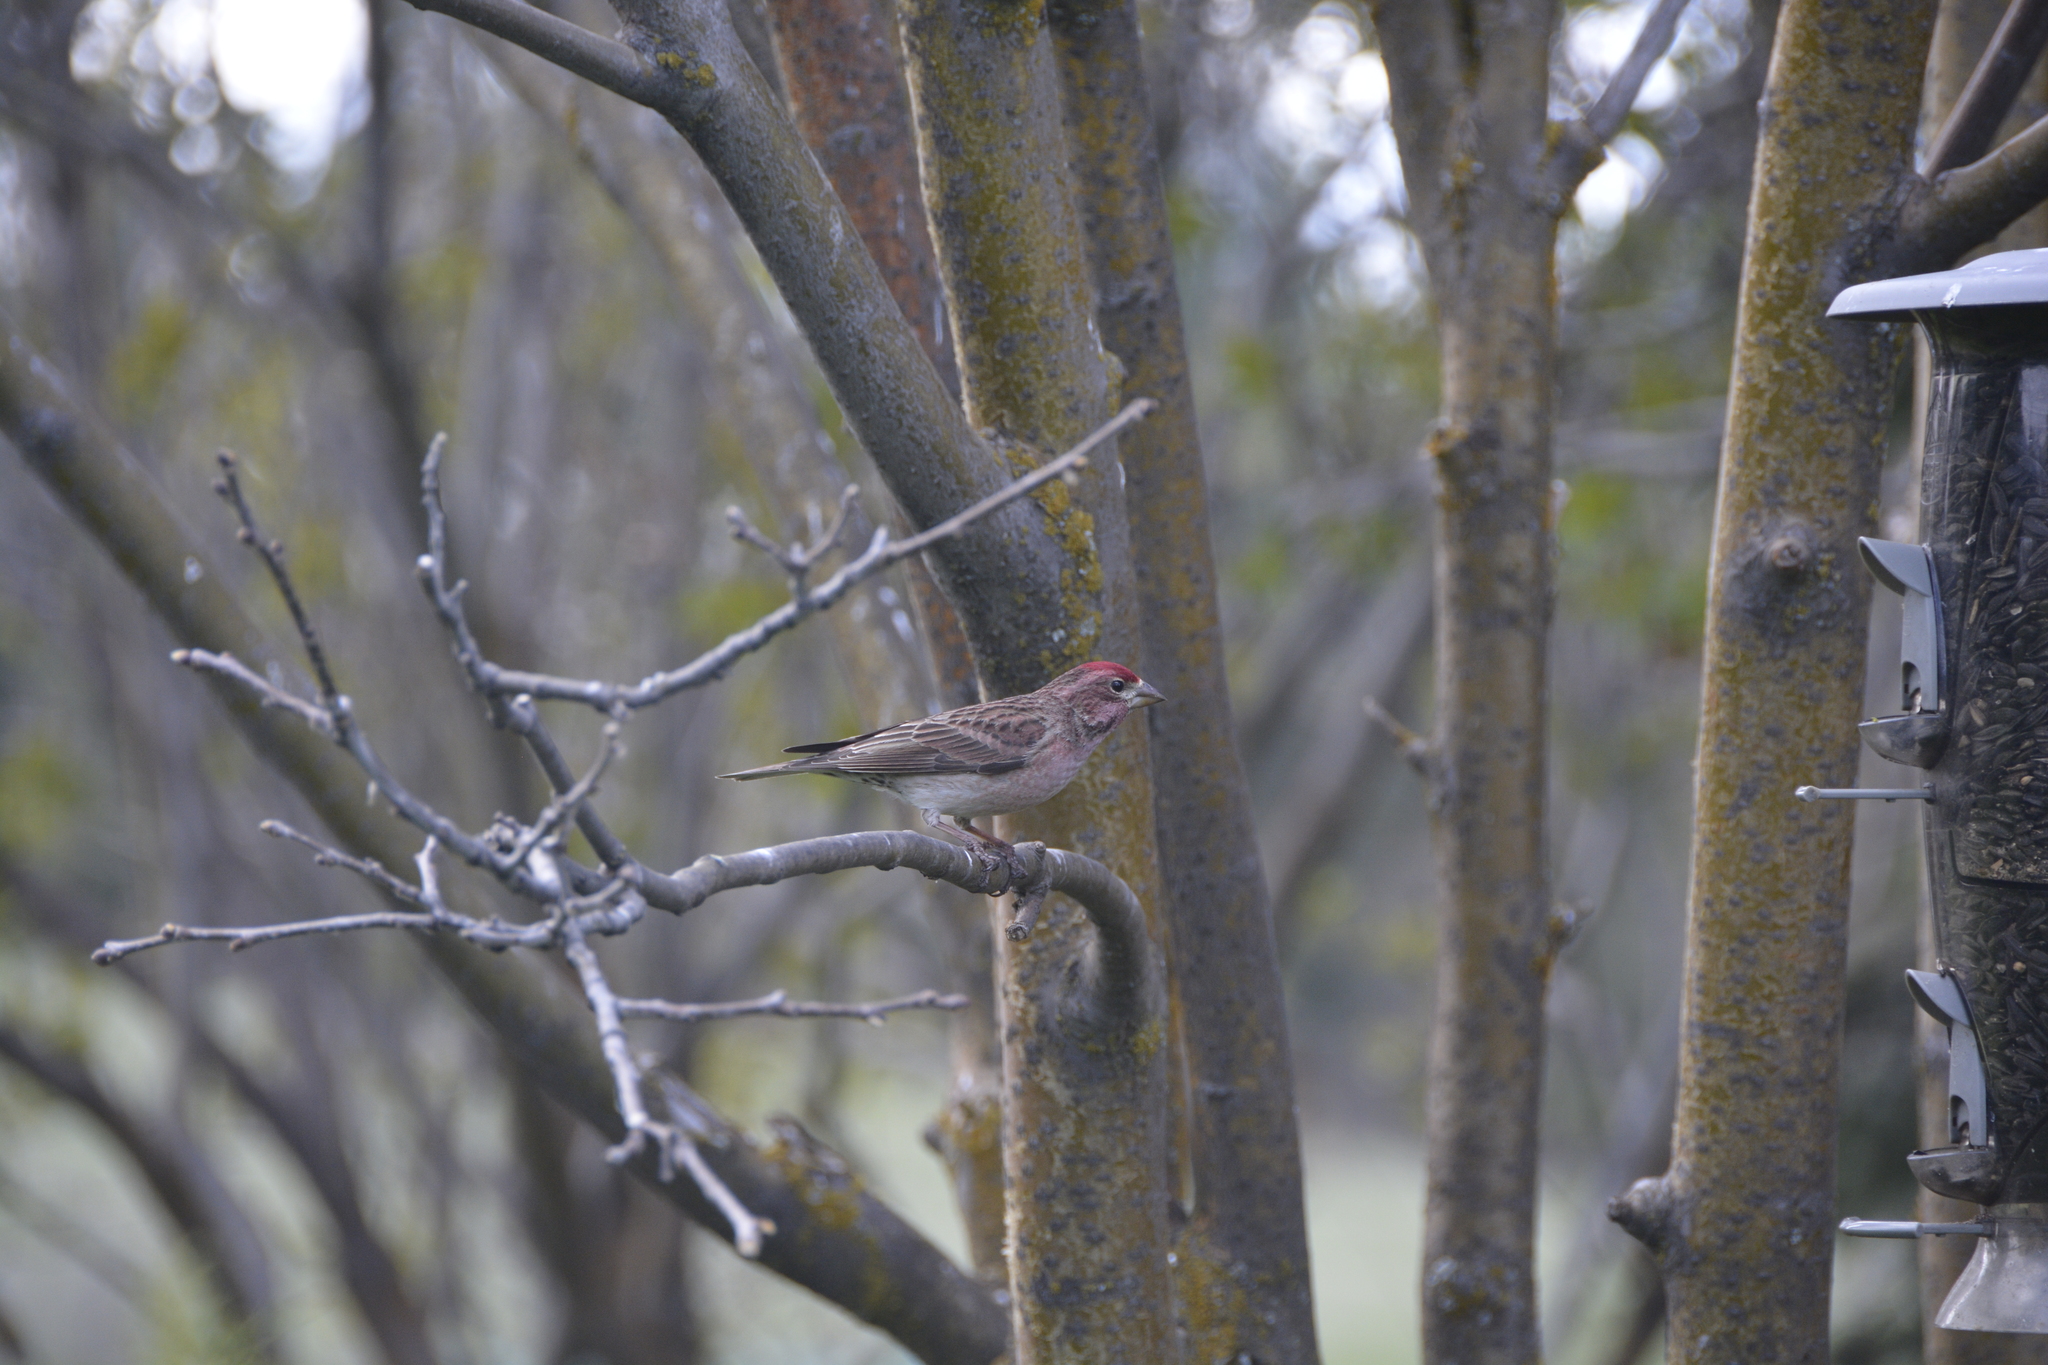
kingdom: Animalia
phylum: Chordata
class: Aves
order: Passeriformes
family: Fringillidae
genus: Haemorhous
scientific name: Haemorhous cassinii
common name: Cassin's finch
